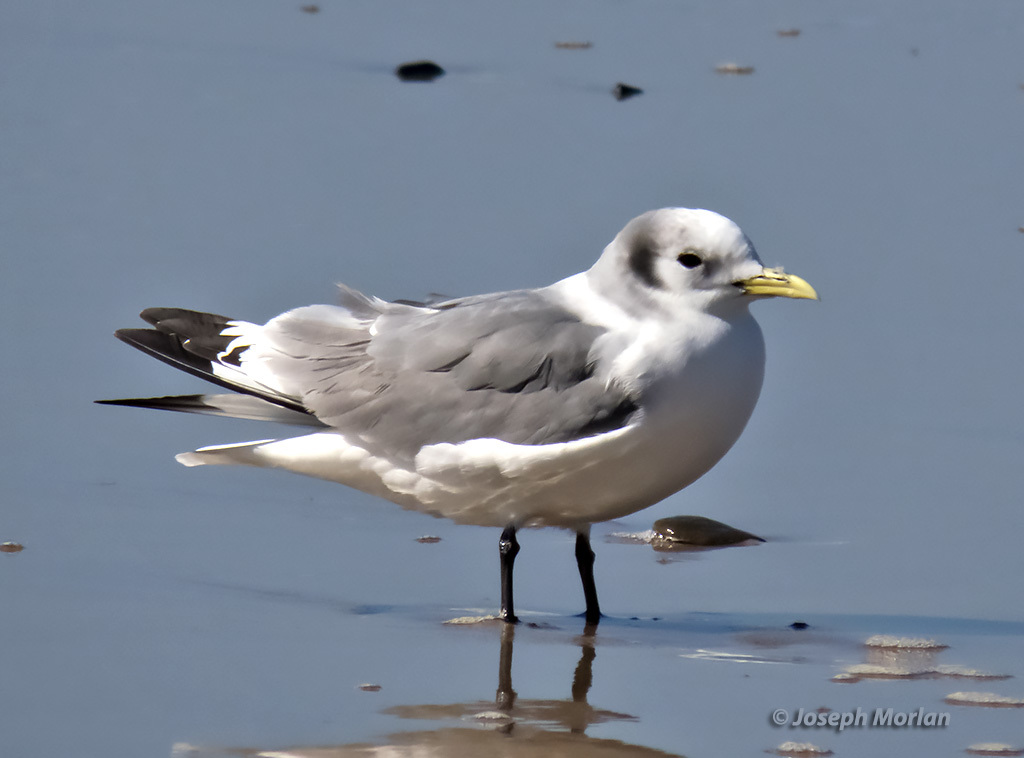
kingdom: Animalia
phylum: Chordata
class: Aves
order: Charadriiformes
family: Laridae
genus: Rissa
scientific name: Rissa tridactyla
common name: Black-legged kittiwake
